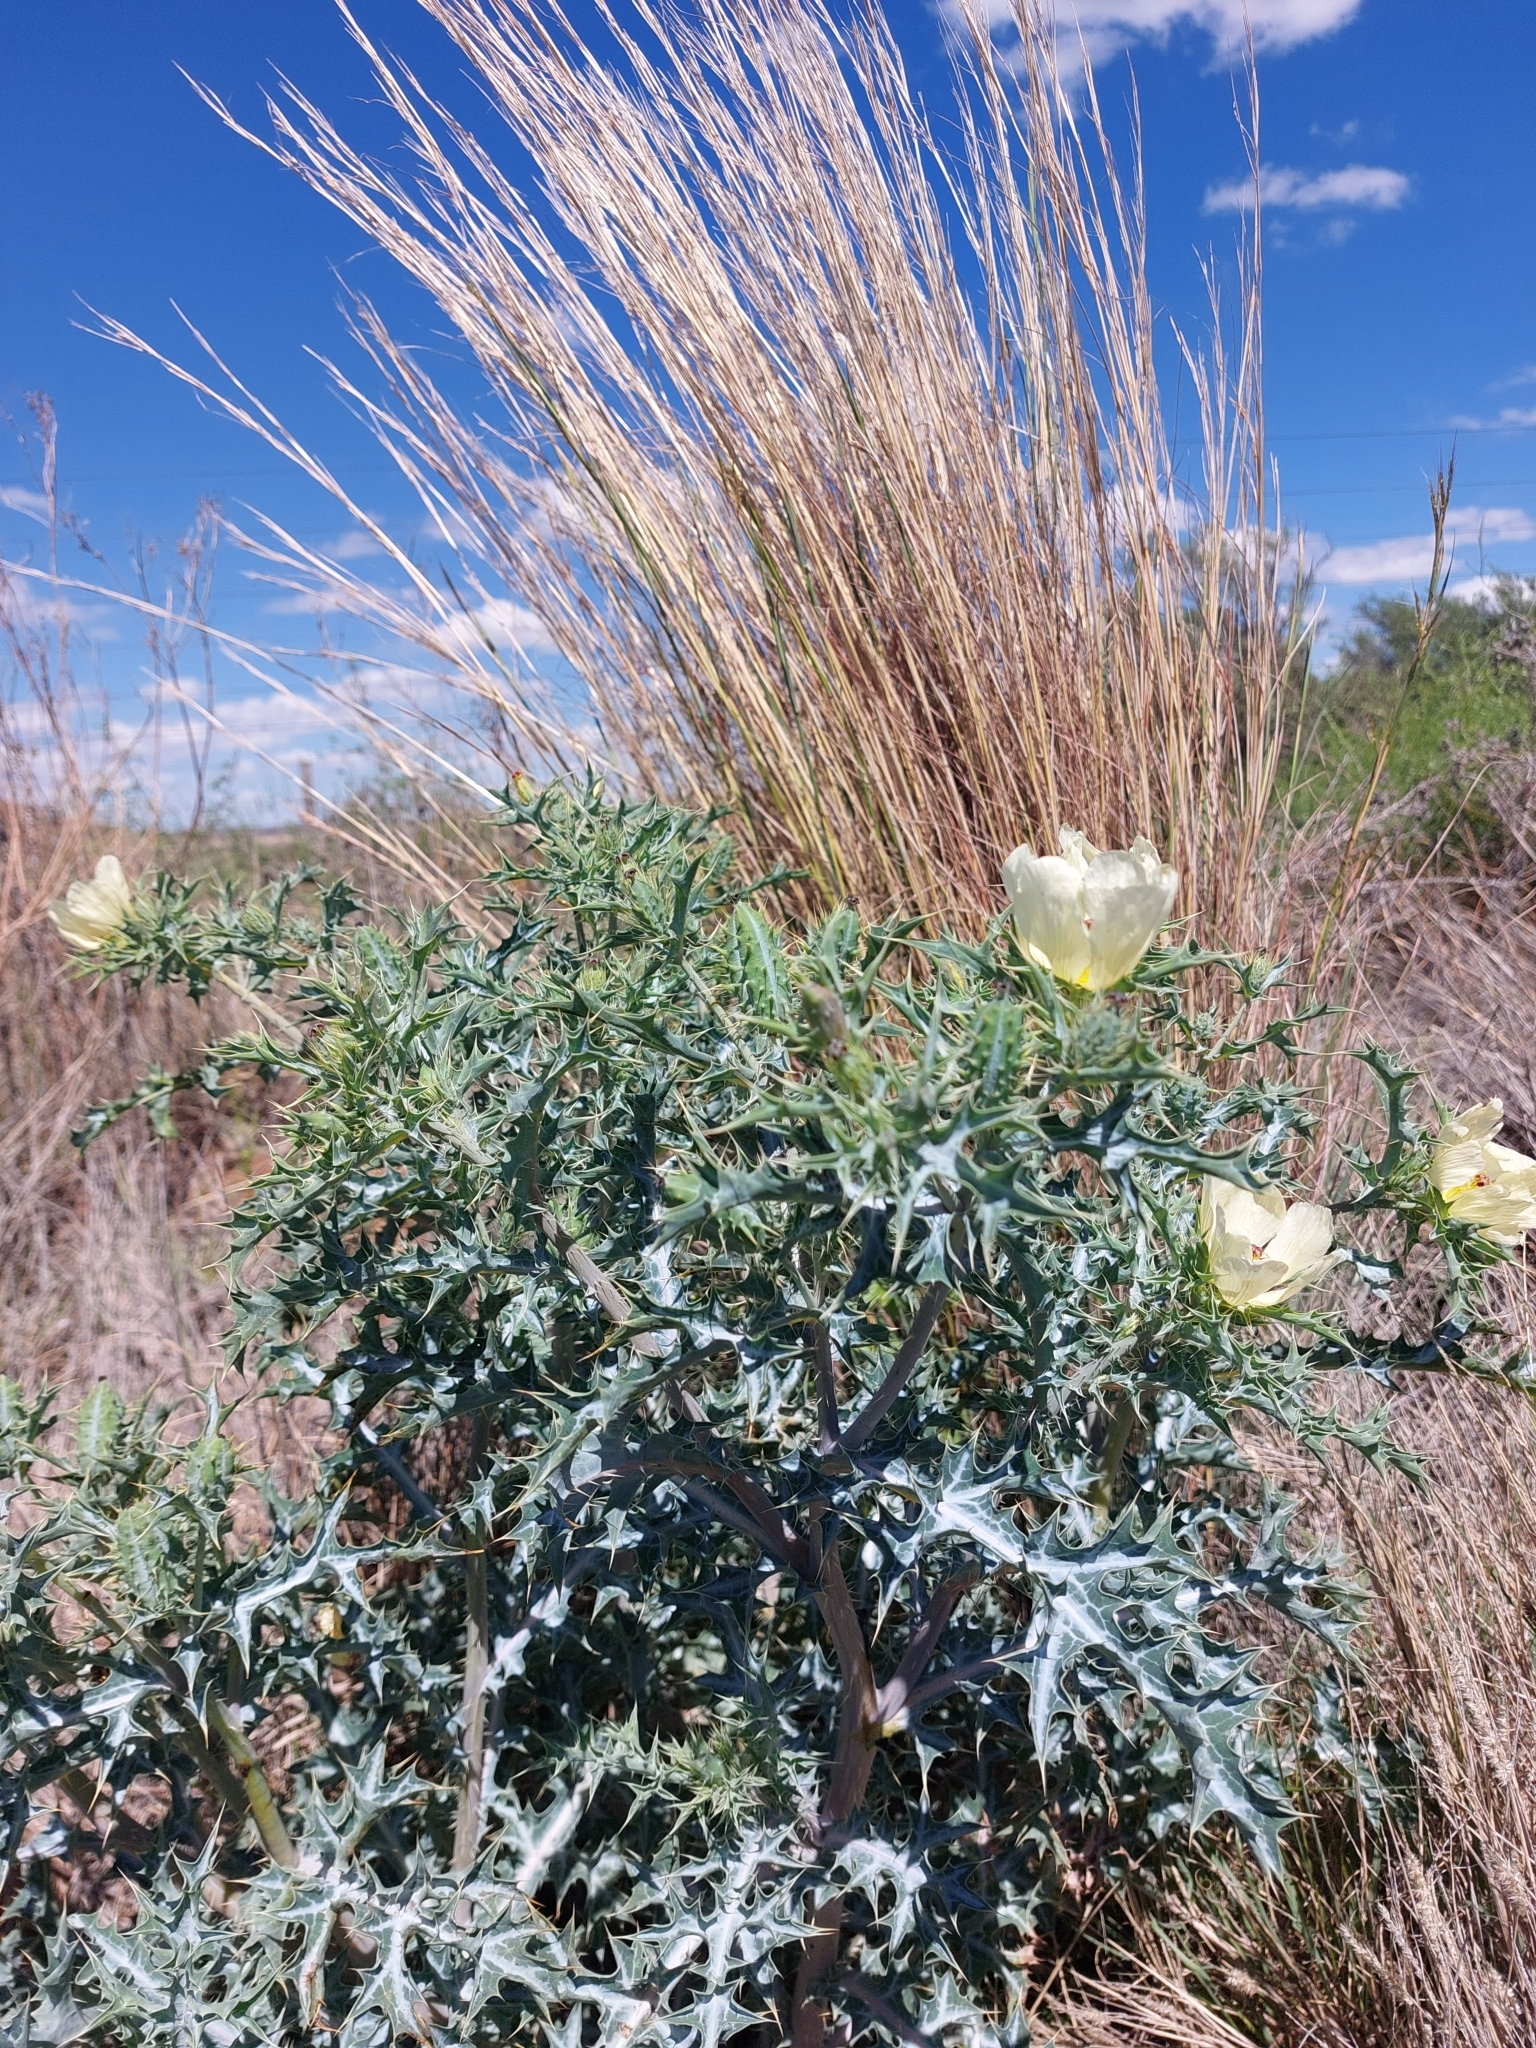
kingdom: Plantae
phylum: Tracheophyta
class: Magnoliopsida
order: Ranunculales
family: Papaveraceae
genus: Argemone
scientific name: Argemone ochroleuca
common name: White-flower mexican-poppy
